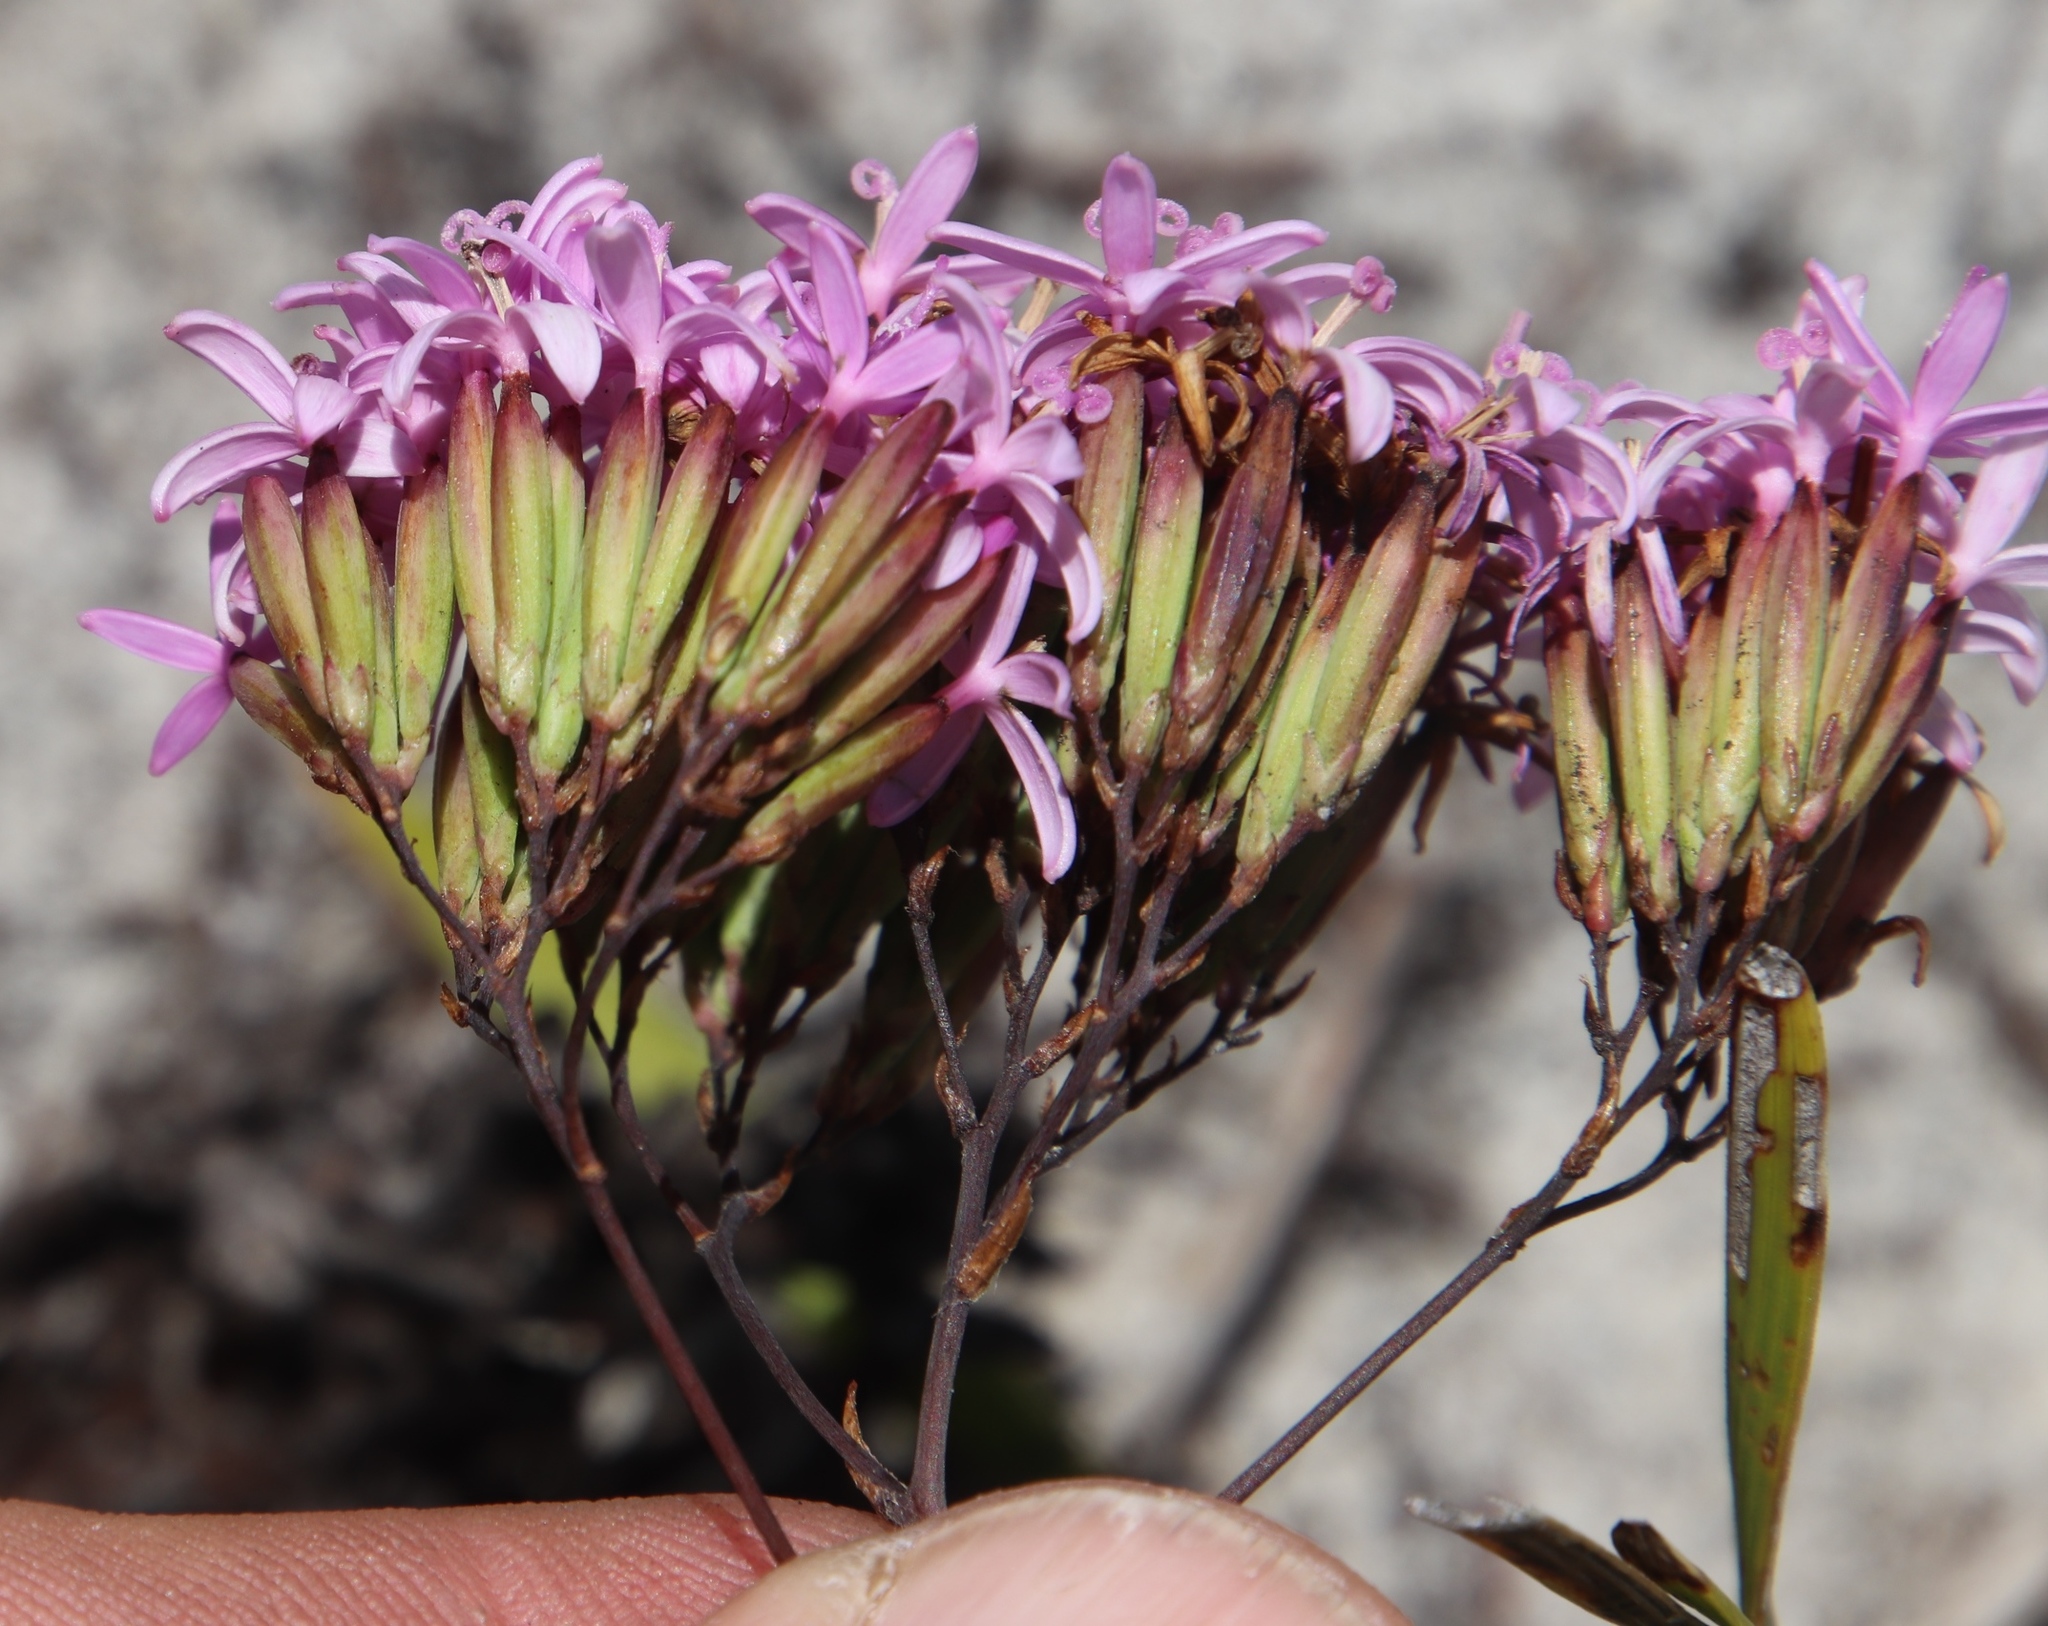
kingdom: Plantae
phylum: Tracheophyta
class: Magnoliopsida
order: Asterales
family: Asteraceae
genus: Corymbium
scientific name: Corymbium glabrum
